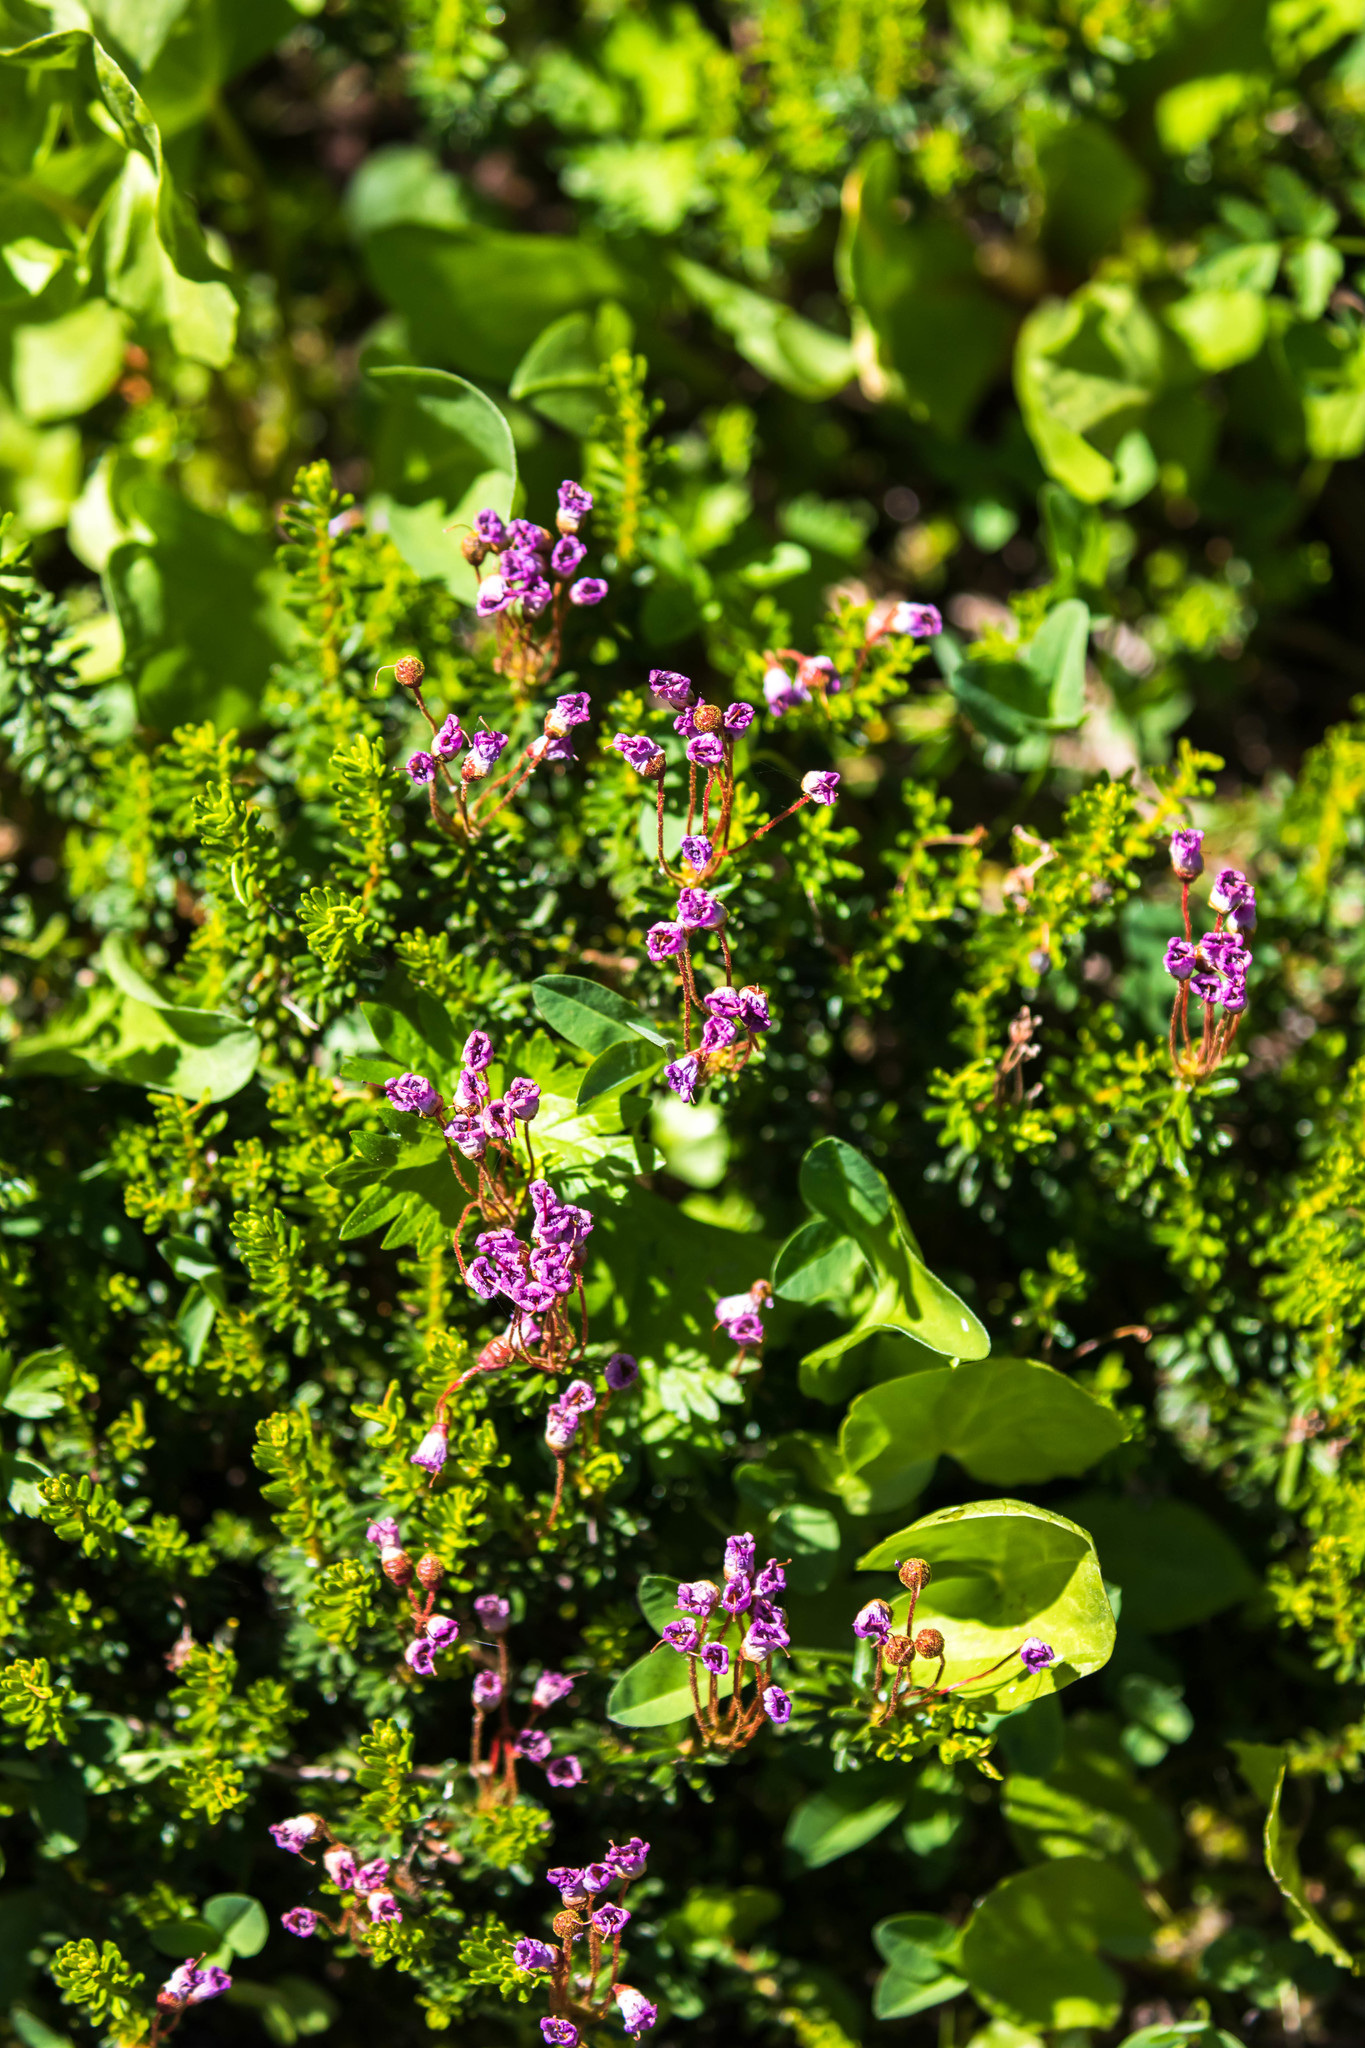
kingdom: Plantae
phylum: Tracheophyta
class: Magnoliopsida
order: Ericales
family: Ericaceae
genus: Phyllodoce
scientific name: Phyllodoce empetriformis
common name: Pink mountain heather
